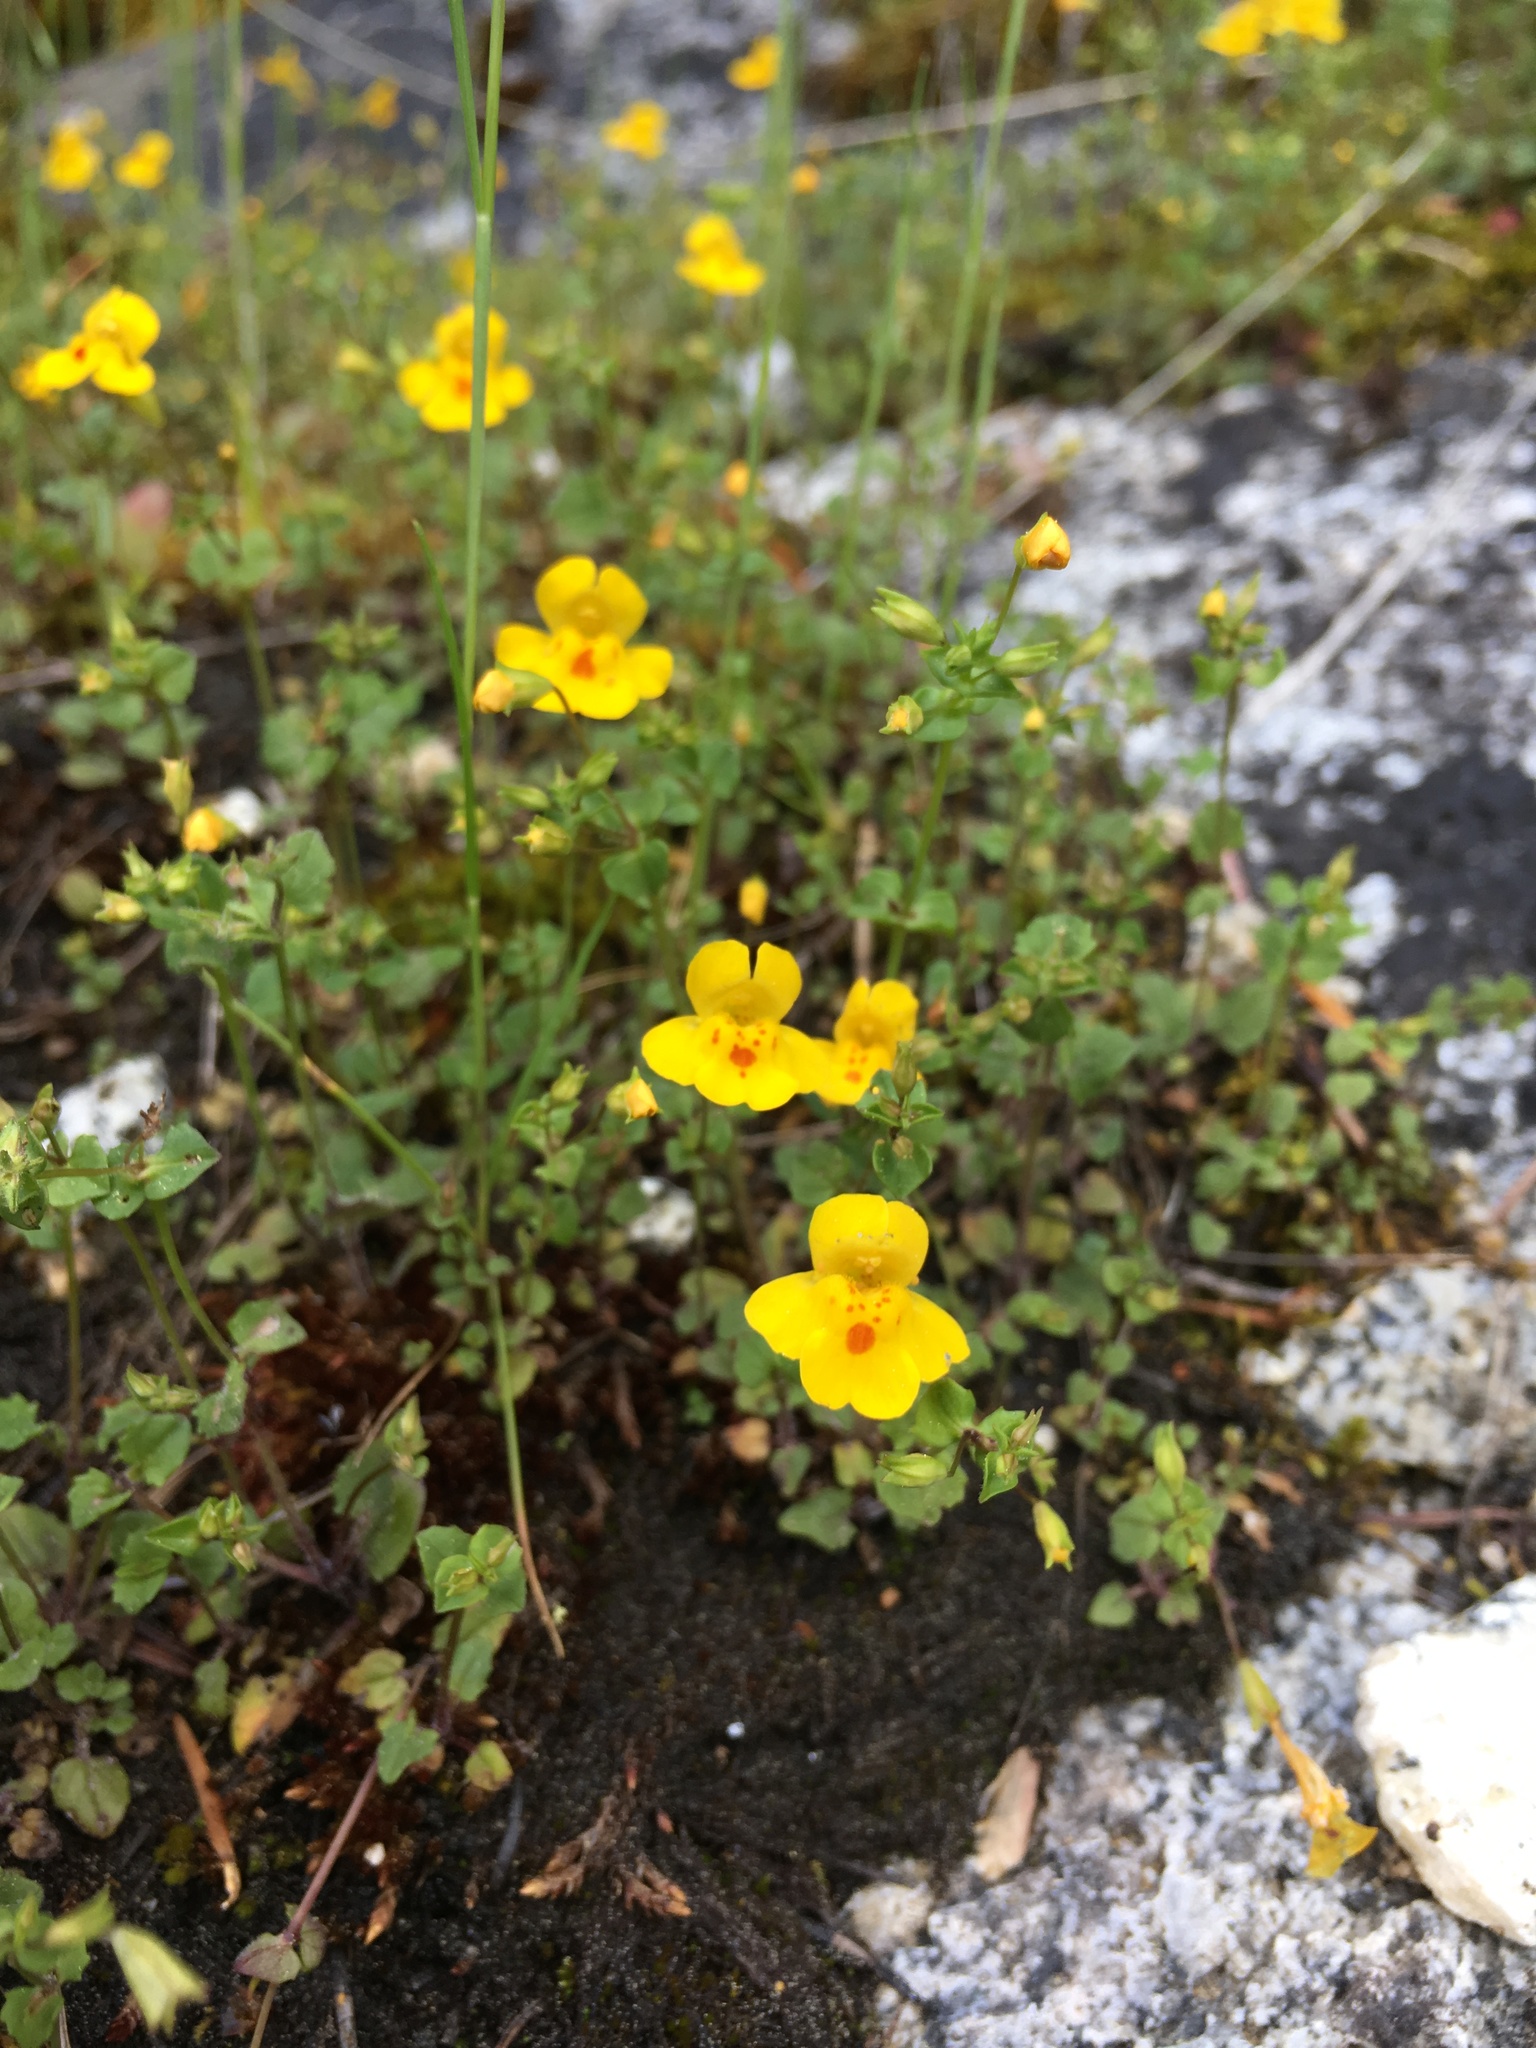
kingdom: Plantae
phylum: Tracheophyta
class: Magnoliopsida
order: Lamiales
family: Phrymaceae
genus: Erythranthe
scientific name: Erythranthe microphylla
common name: Bentham's monkeyflower
